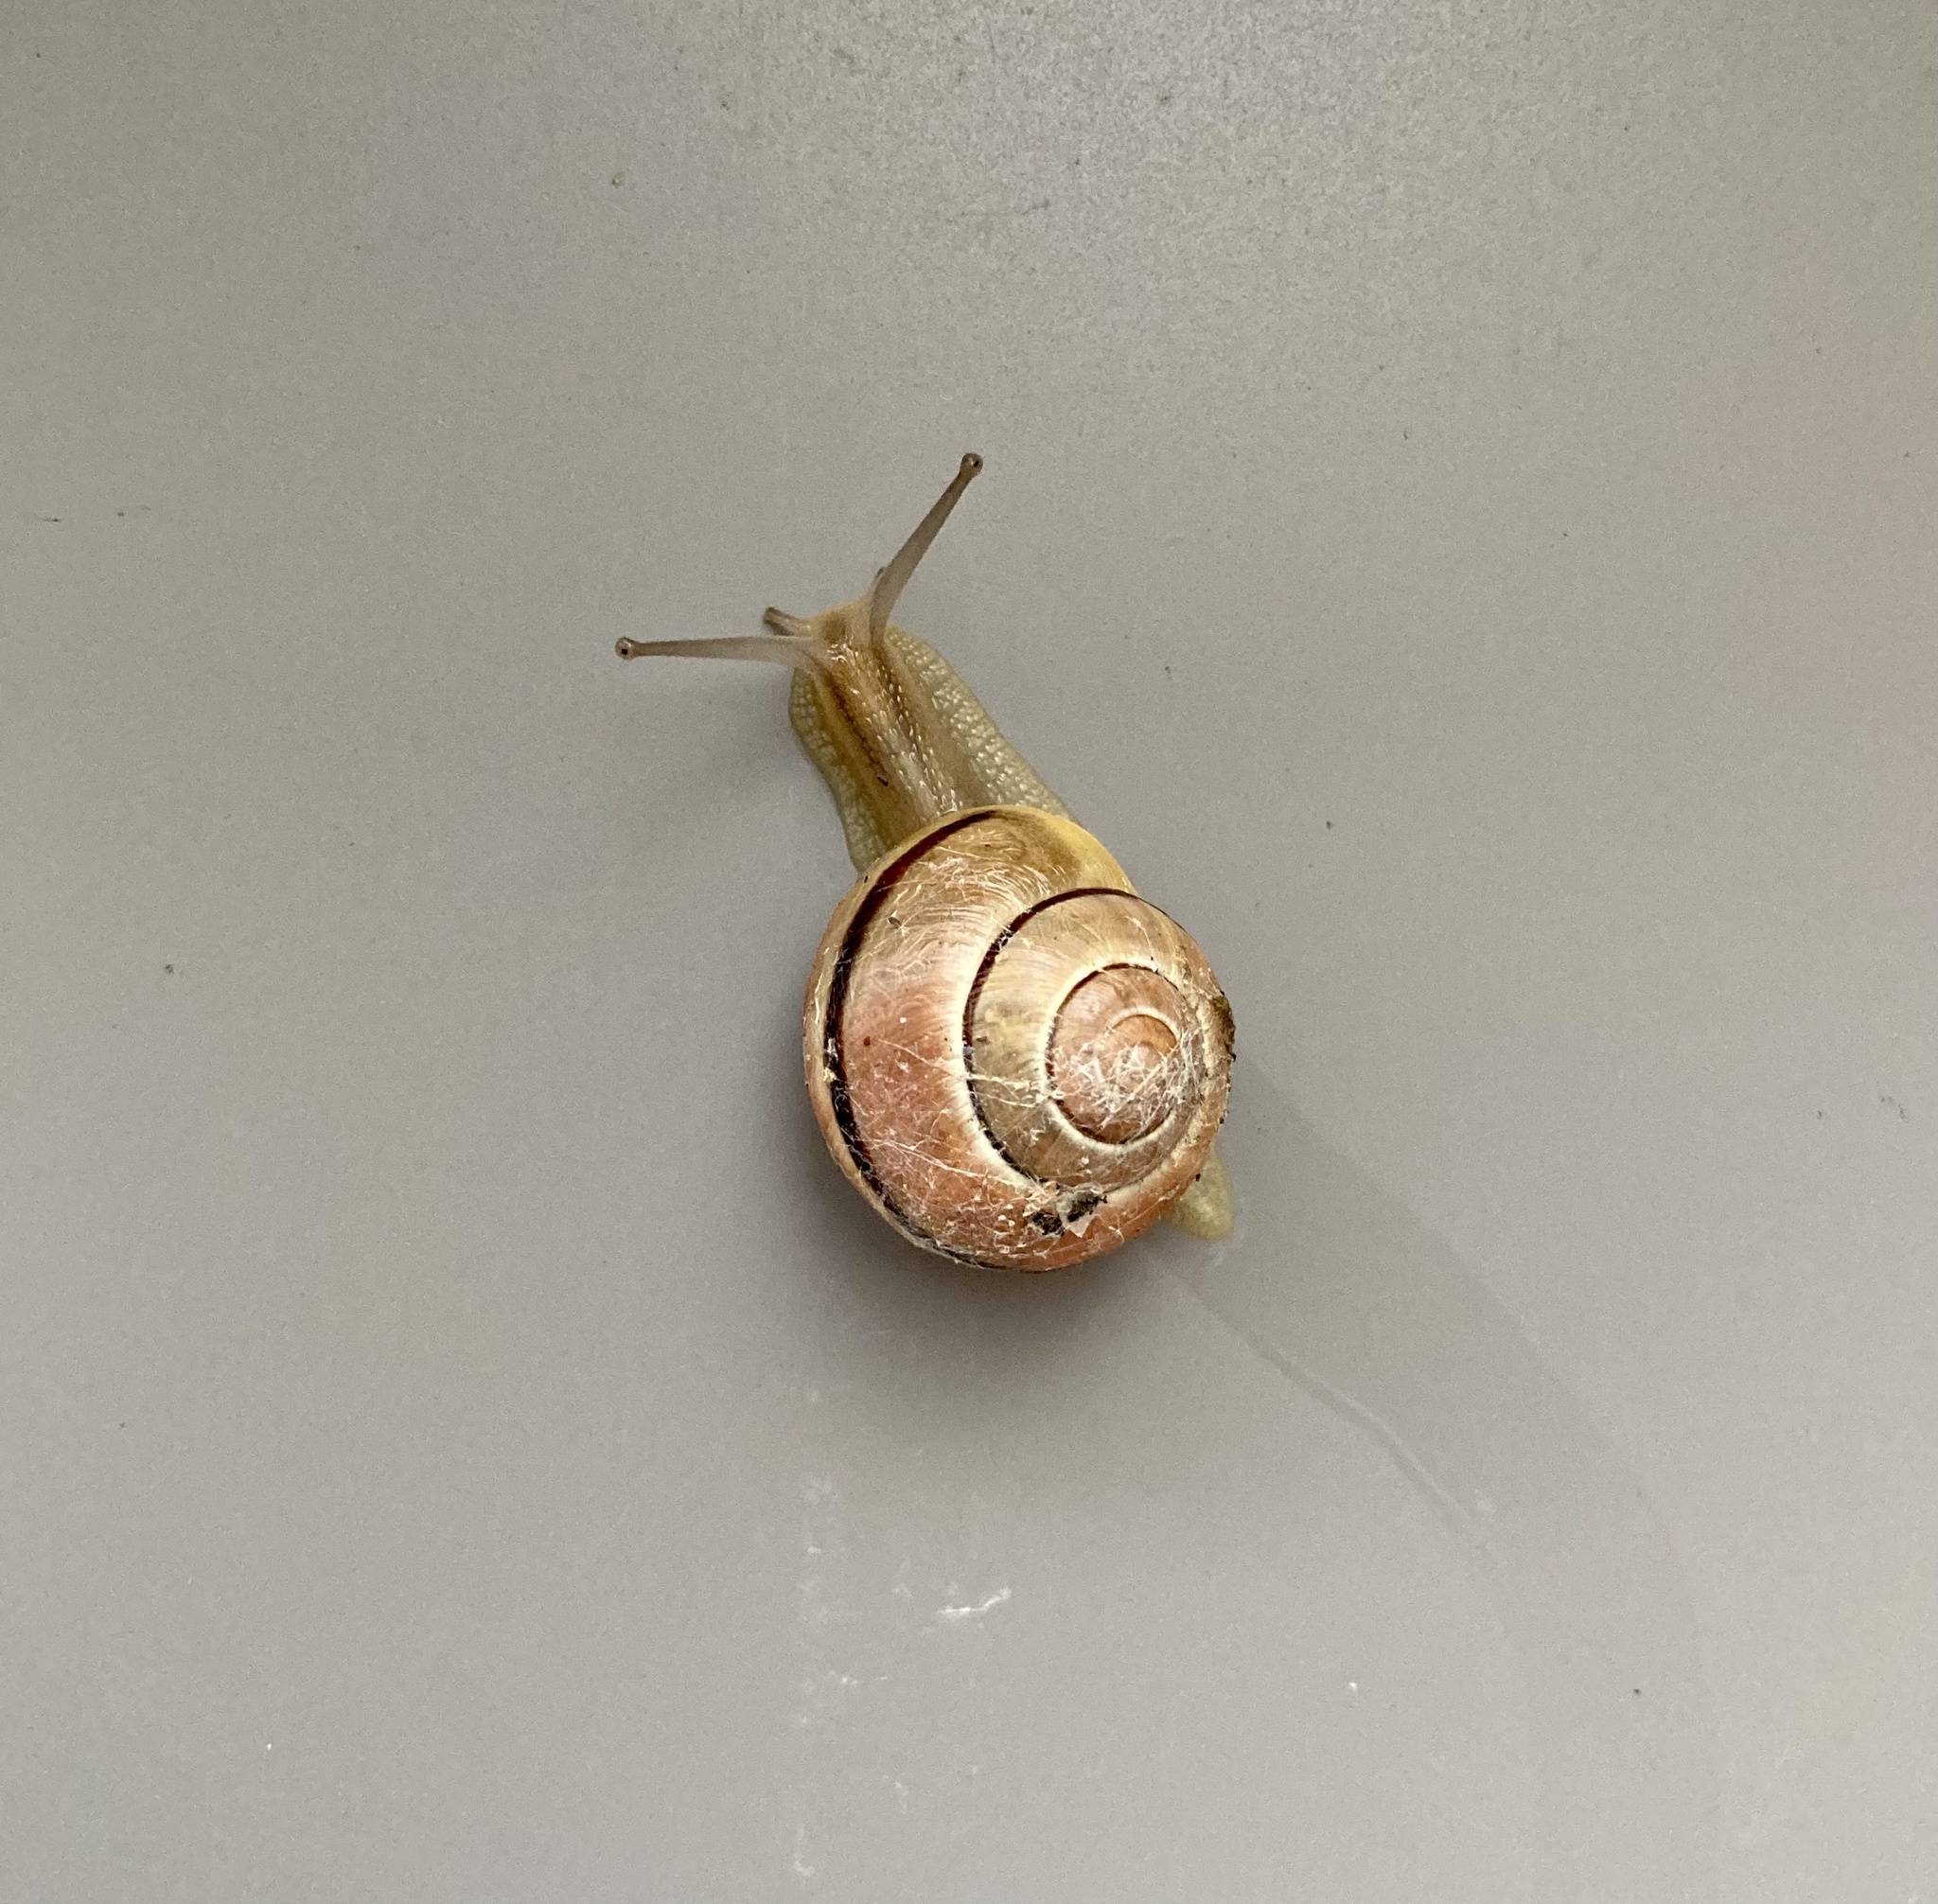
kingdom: Animalia
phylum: Mollusca
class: Gastropoda
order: Stylommatophora
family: Helicidae
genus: Cepaea
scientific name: Cepaea
